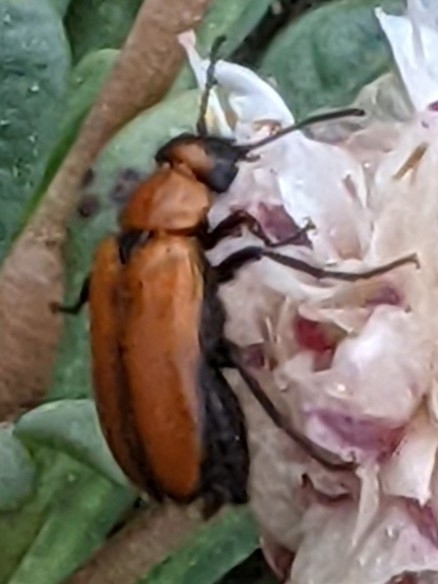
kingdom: Animalia
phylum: Arthropoda
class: Insecta
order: Coleoptera
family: Meloidae
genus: Nemognatha
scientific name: Nemognatha scutellaris
